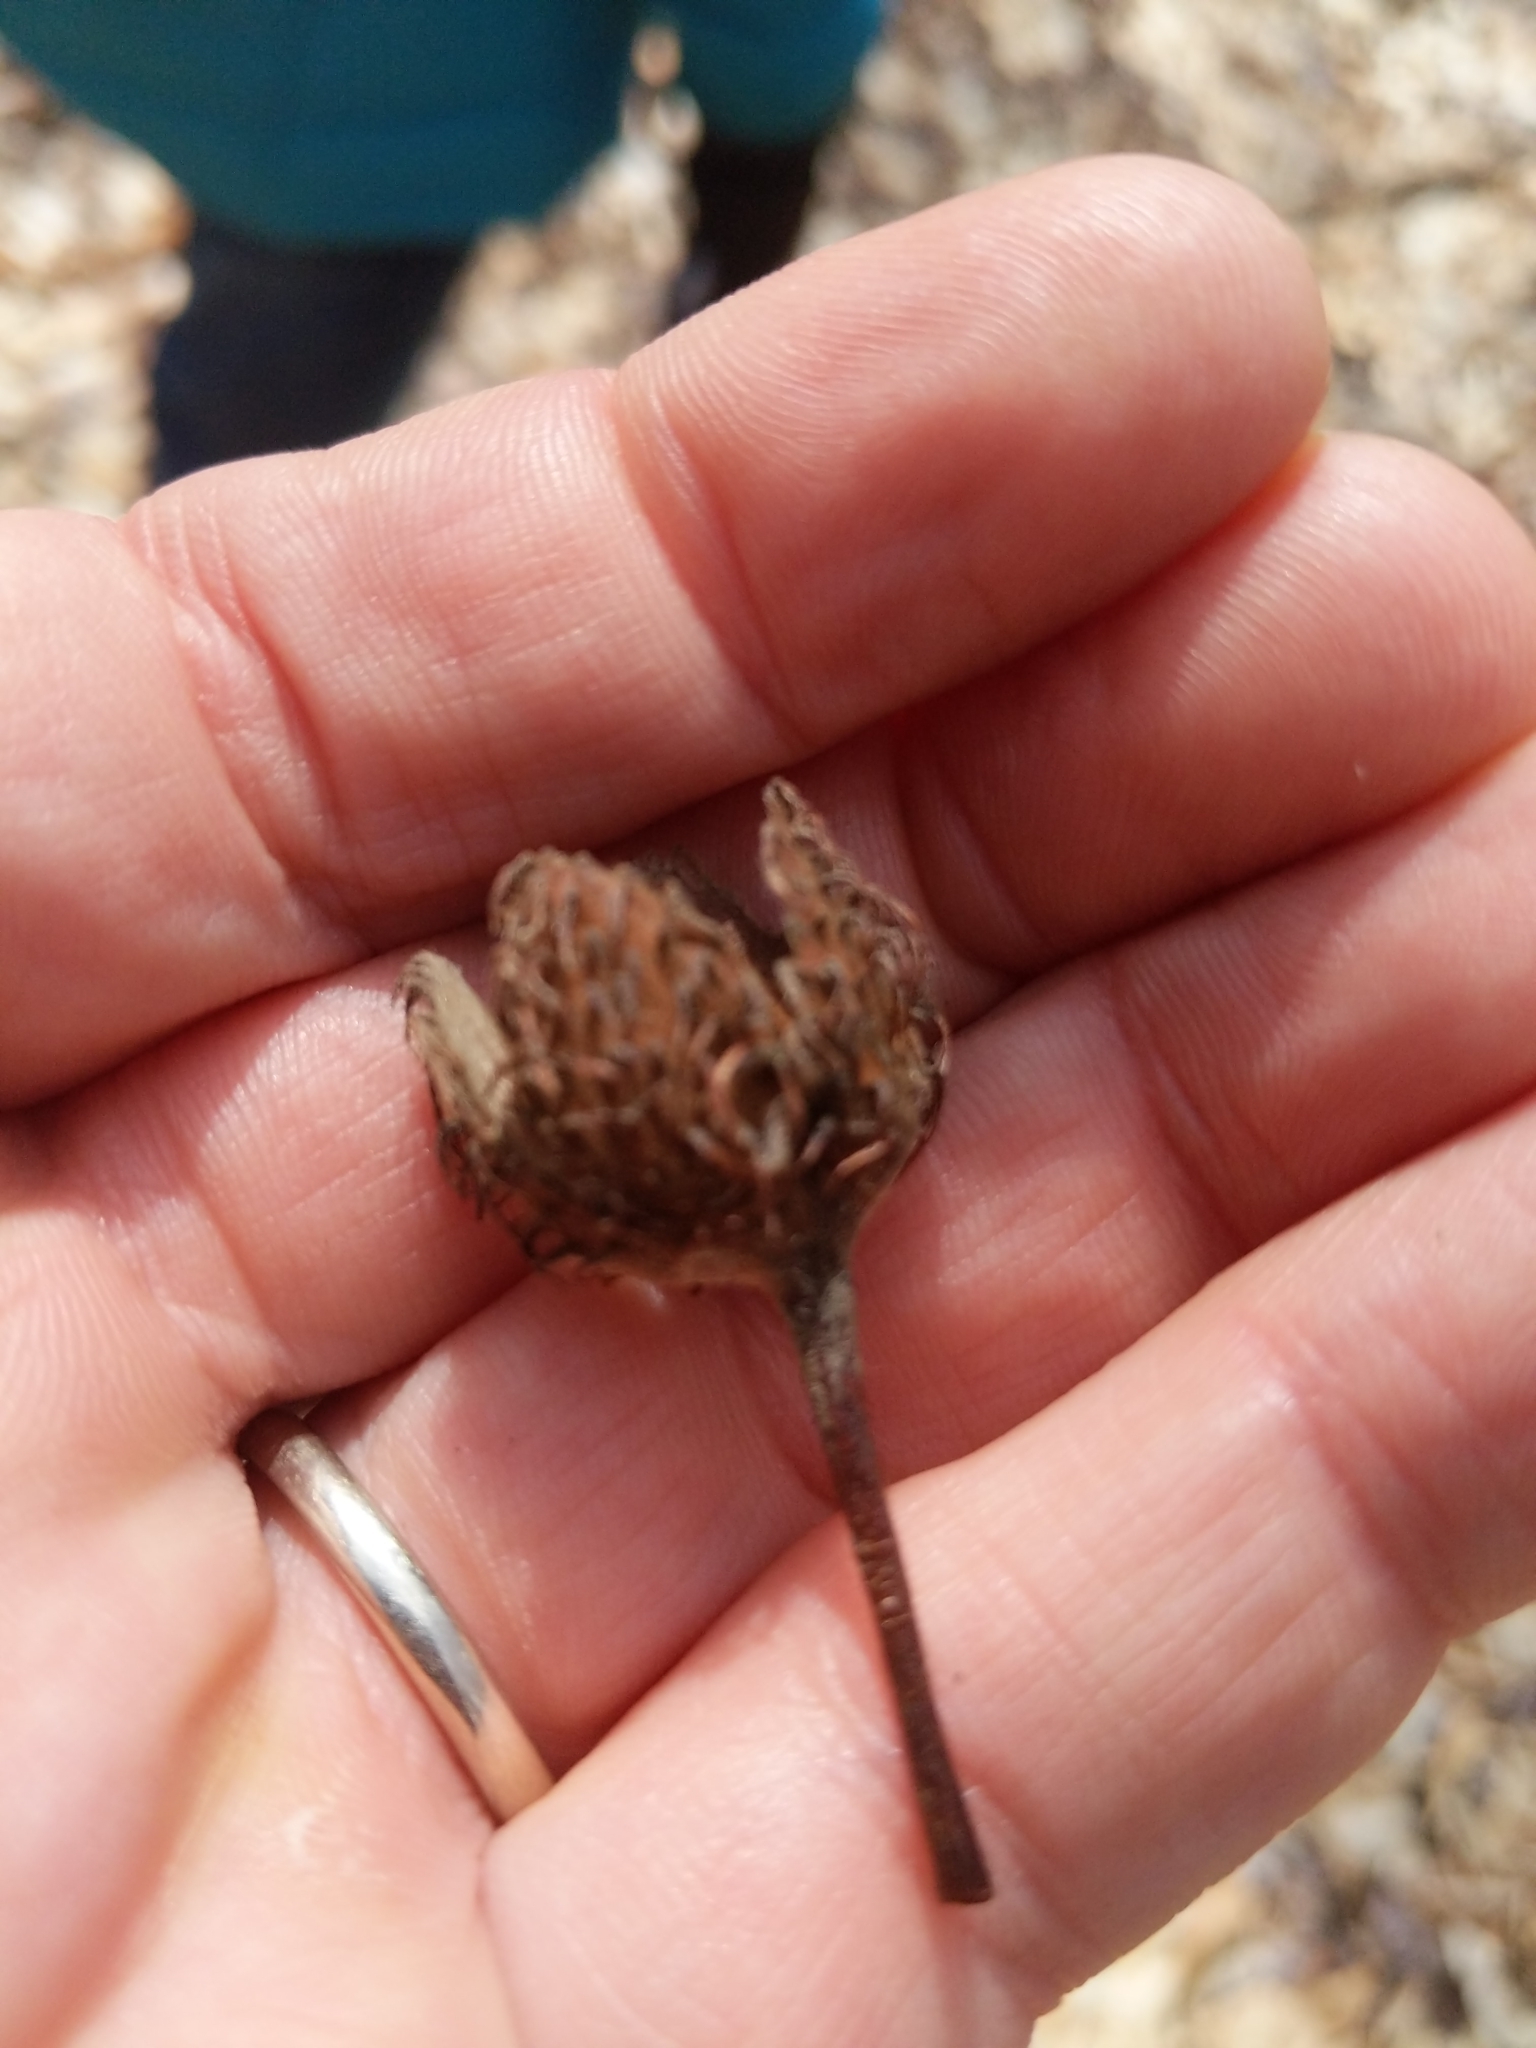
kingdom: Plantae
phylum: Tracheophyta
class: Magnoliopsida
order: Fagales
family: Fagaceae
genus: Fagus
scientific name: Fagus grandifolia
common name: American beech
